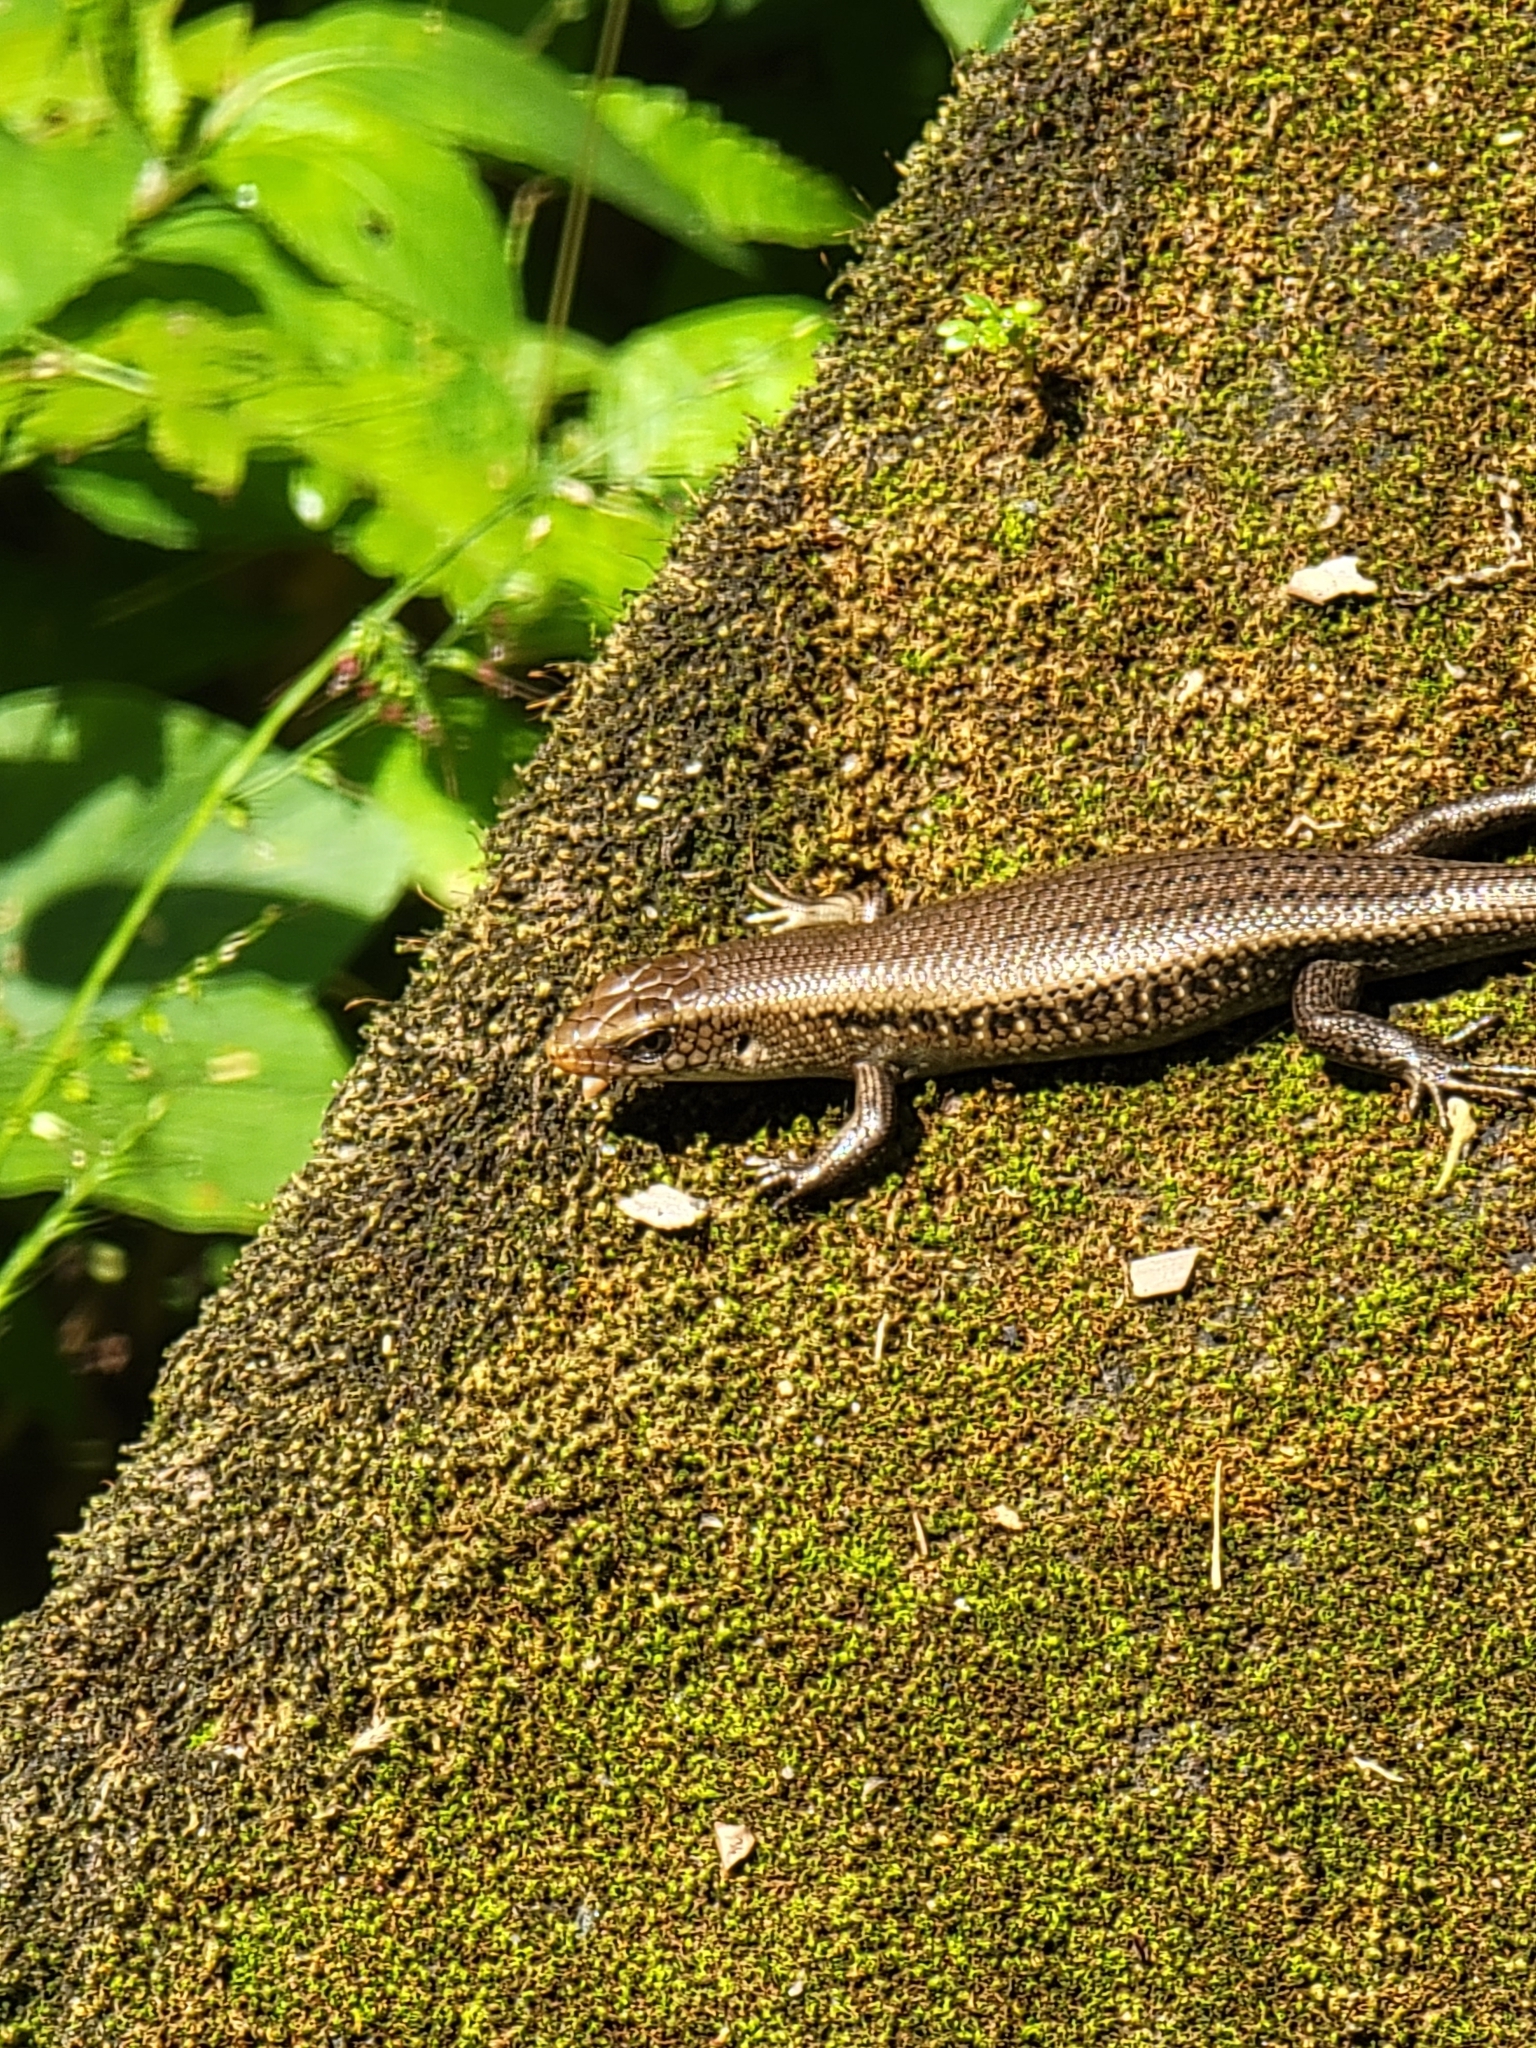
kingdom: Animalia
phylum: Chordata
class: Squamata
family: Scincidae
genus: Eutropis
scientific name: Eutropis multifasciata
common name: Common mabuya
